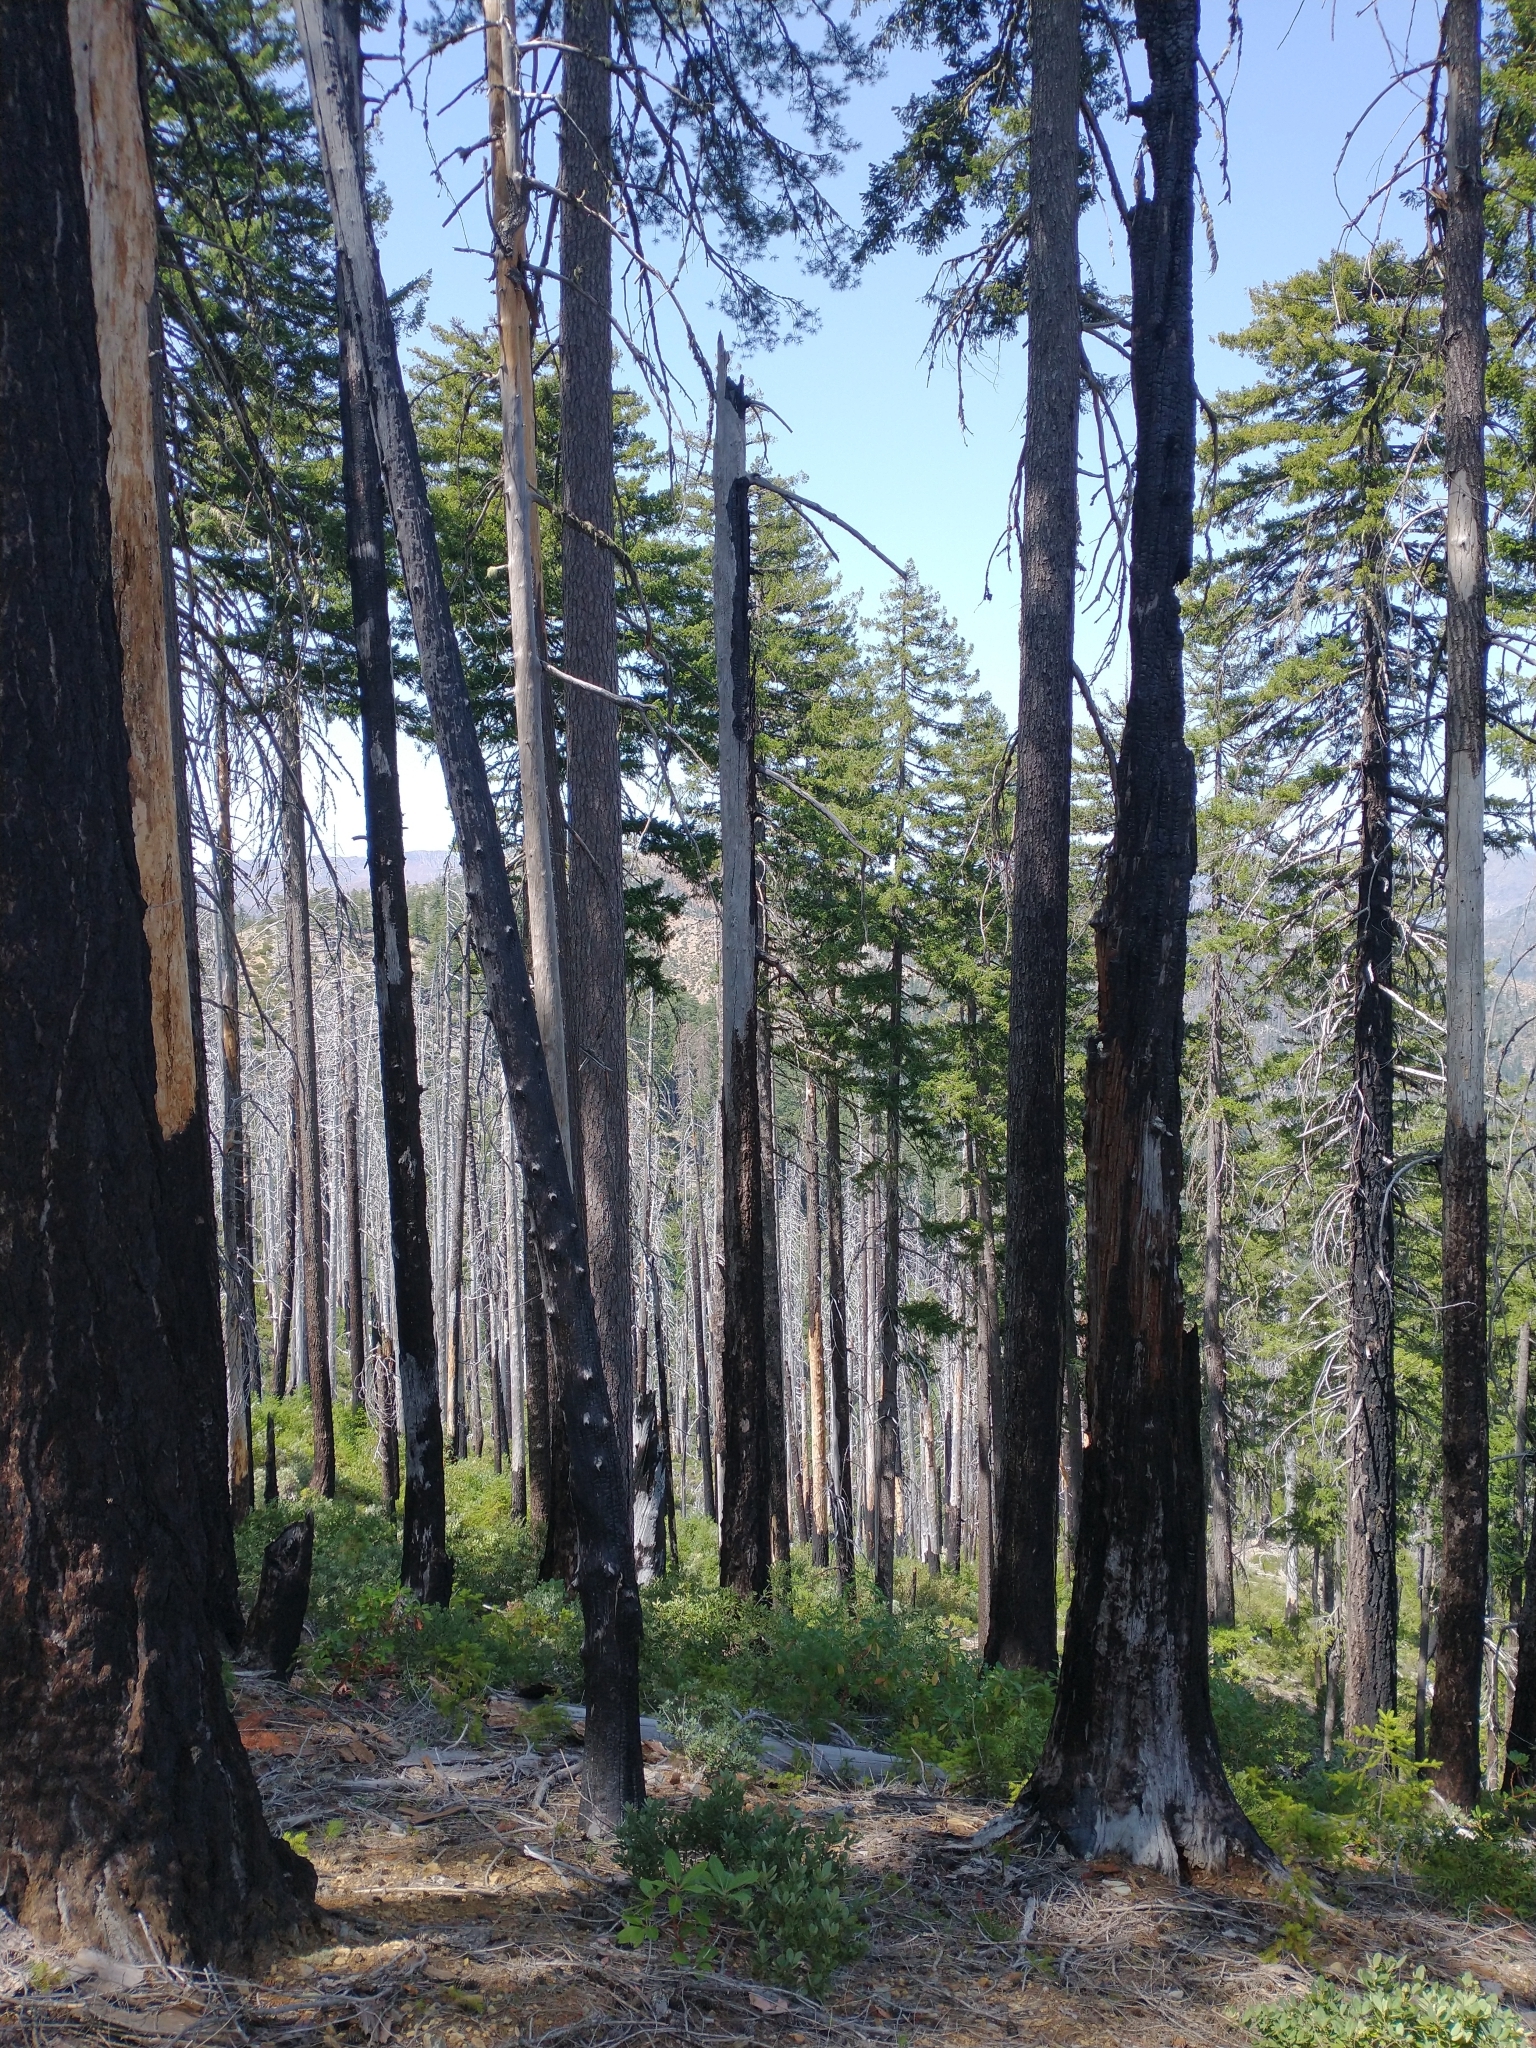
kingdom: Plantae
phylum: Tracheophyta
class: Pinopsida
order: Pinales
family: Pinaceae
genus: Pinus
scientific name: Pinus lambertiana
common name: Sugar pine
